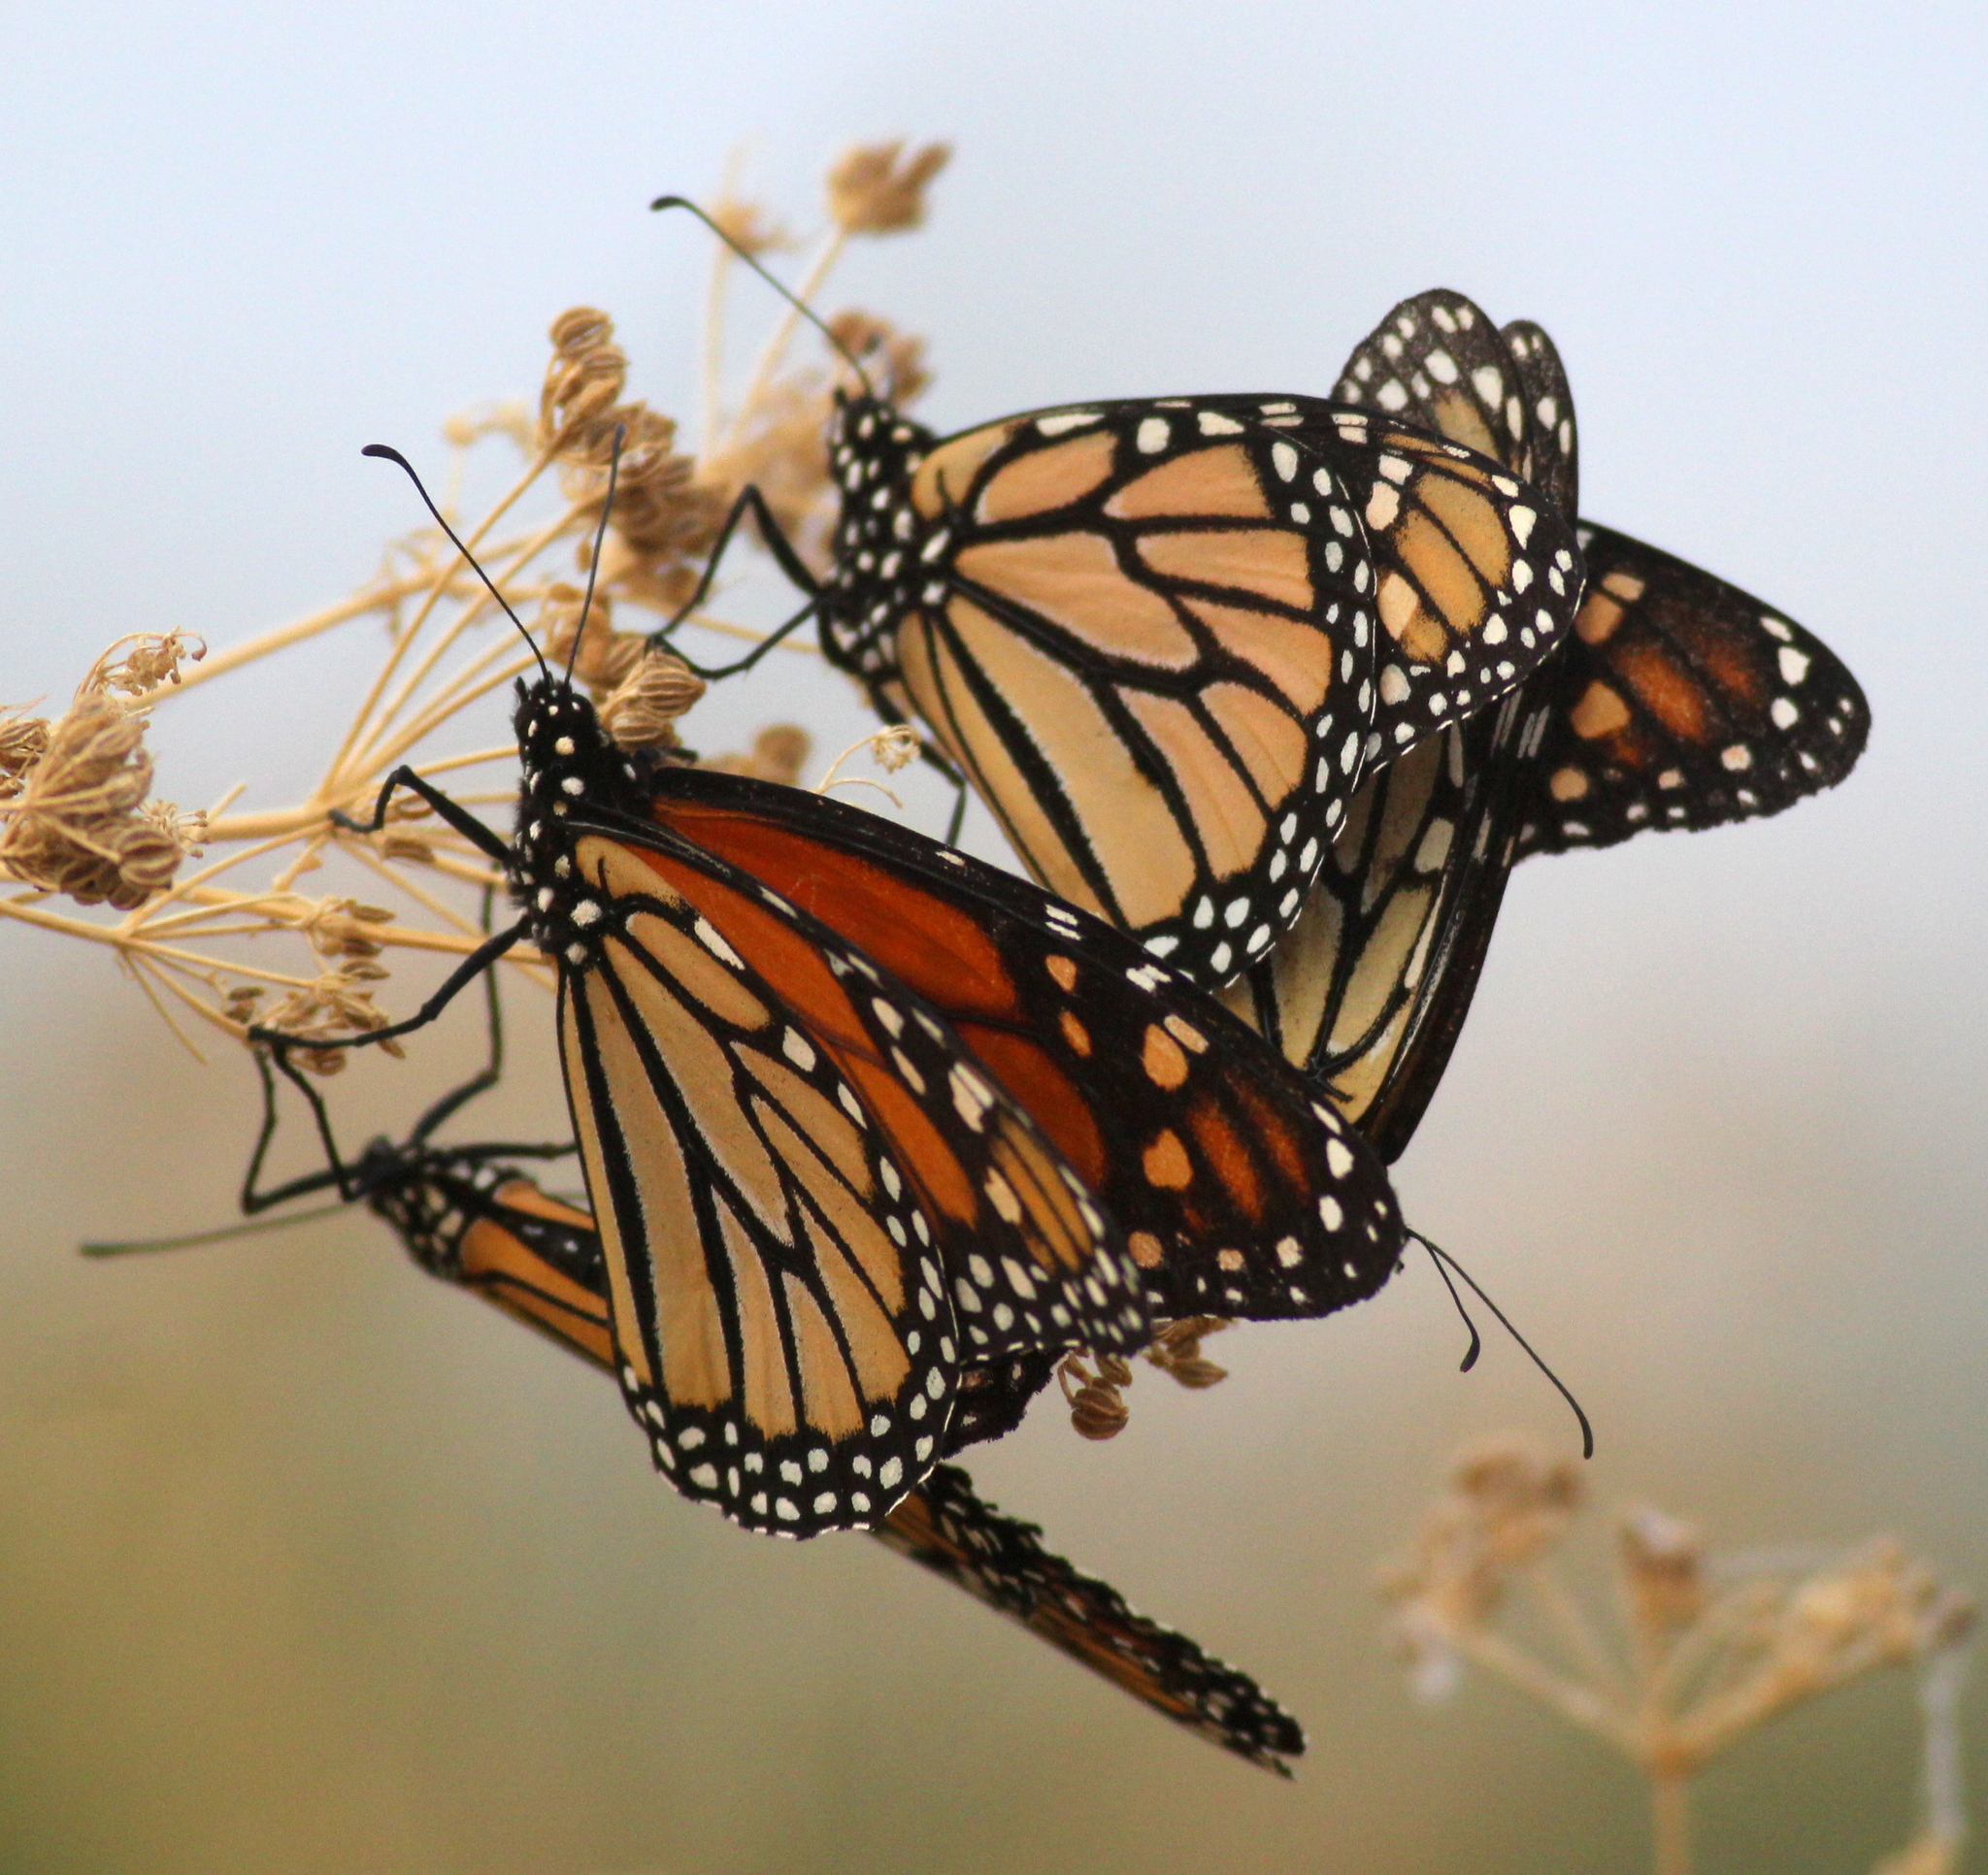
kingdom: Animalia
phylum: Arthropoda
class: Insecta
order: Lepidoptera
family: Nymphalidae
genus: Danaus
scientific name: Danaus plexippus
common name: Monarch
